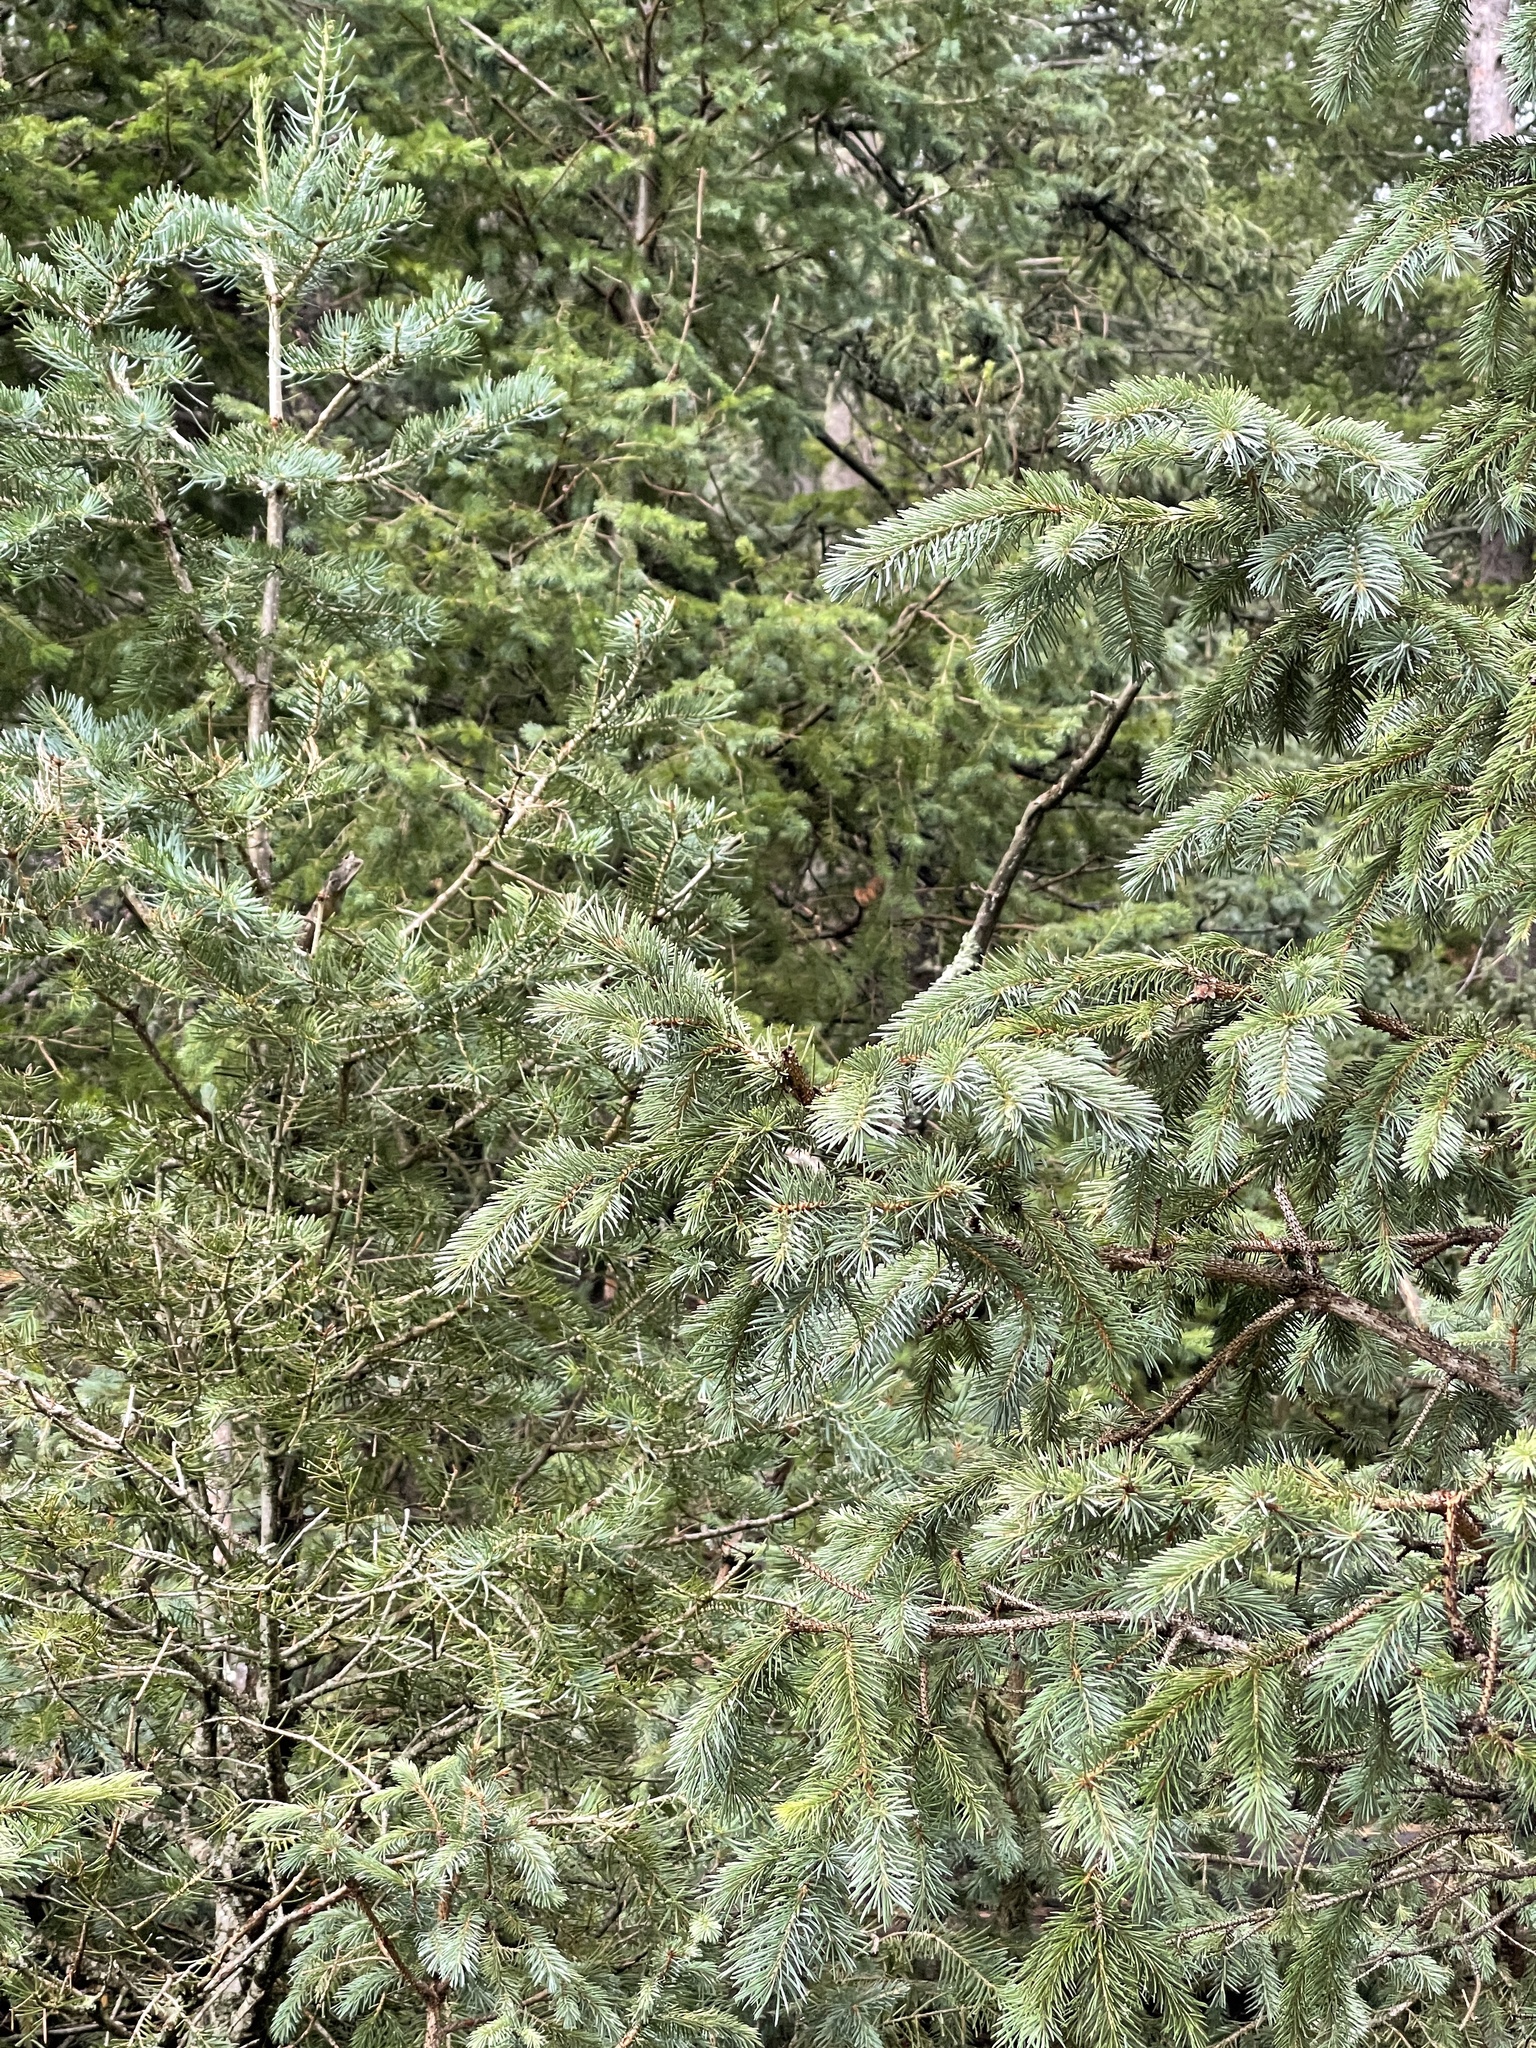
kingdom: Plantae
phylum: Tracheophyta
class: Pinopsida
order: Pinales
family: Pinaceae
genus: Picea
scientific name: Picea engelmannii
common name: Engelmann spruce
